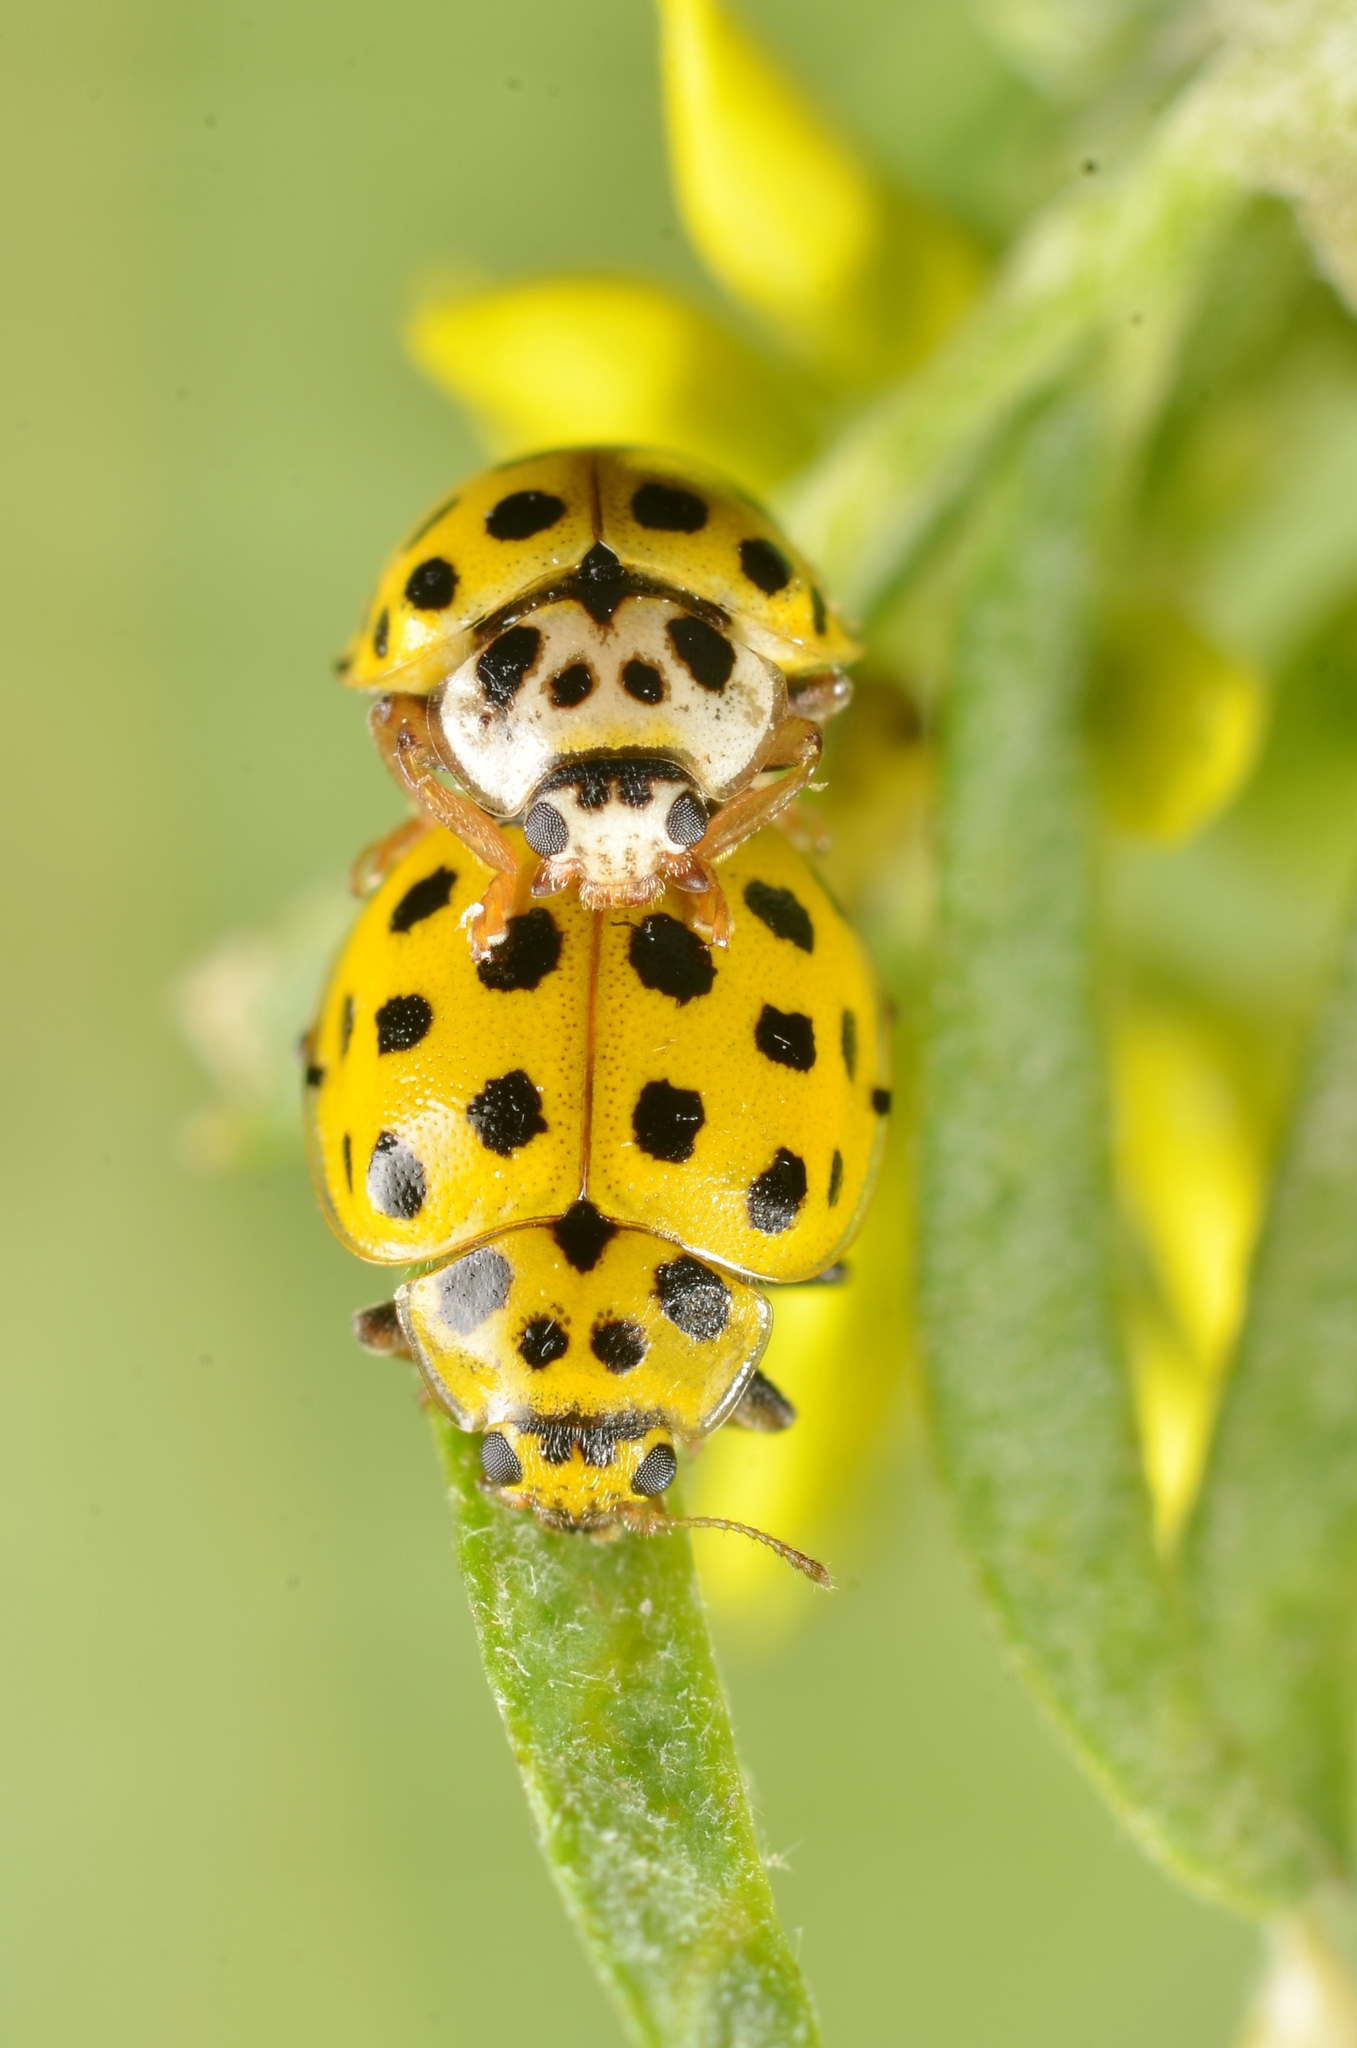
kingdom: Animalia
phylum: Arthropoda
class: Insecta
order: Coleoptera
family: Coccinellidae
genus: Psyllobora
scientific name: Psyllobora vigintiduopunctata
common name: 22-spot ladybird
